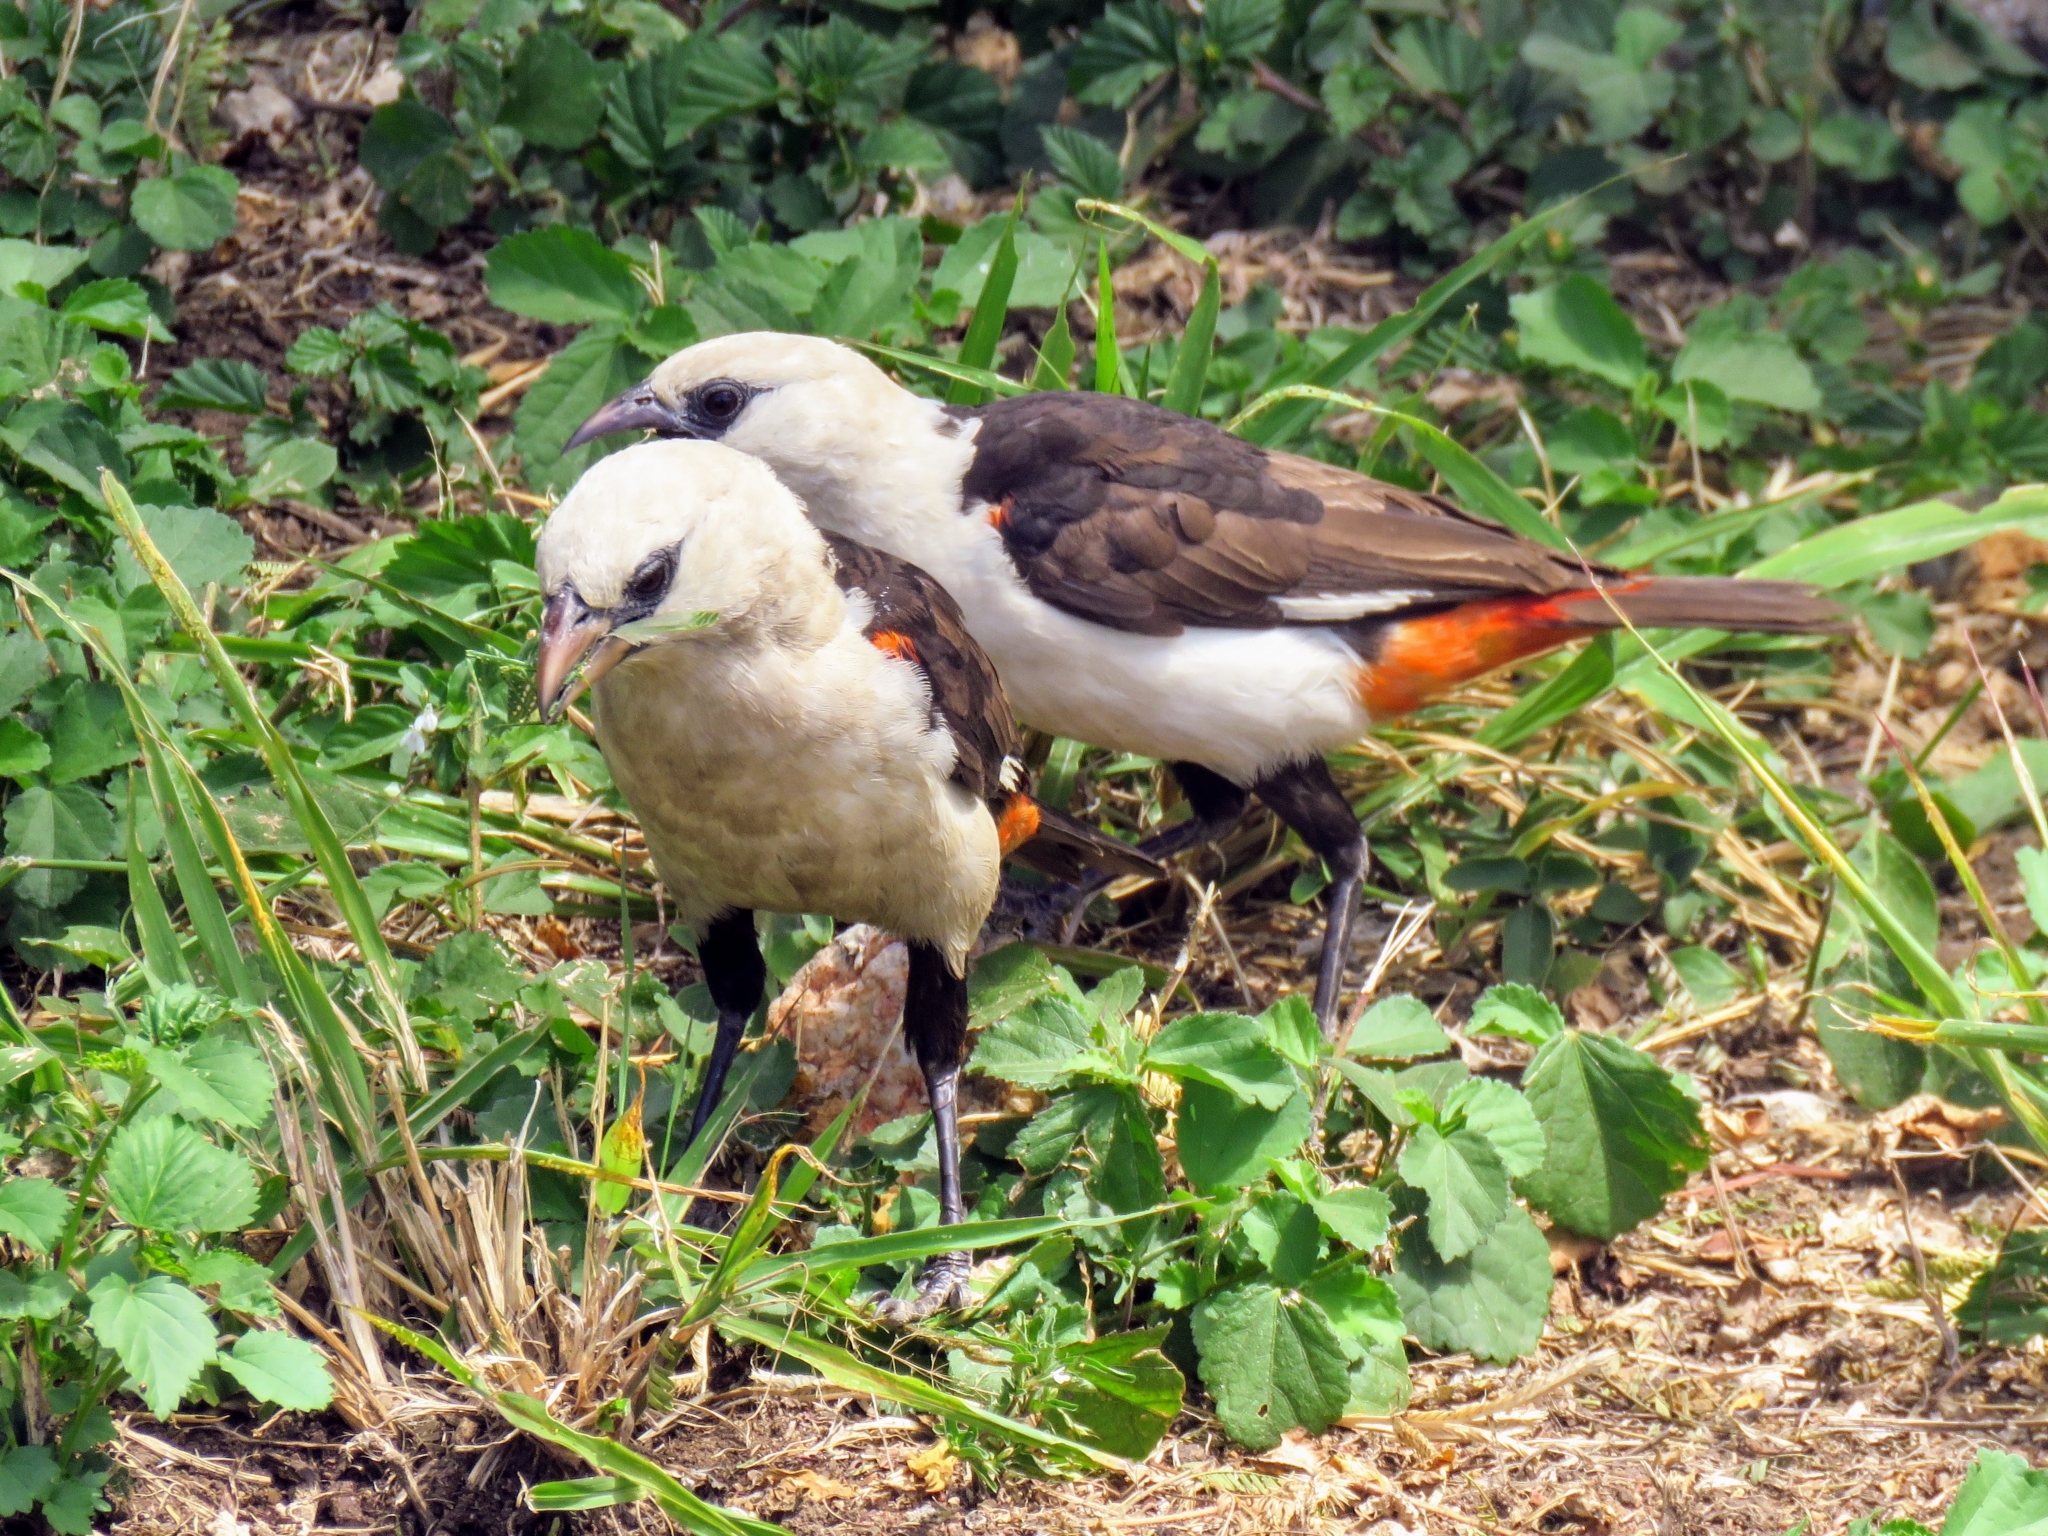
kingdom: Animalia
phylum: Chordata
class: Aves
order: Passeriformes
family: Ploceidae
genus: Dinemellia
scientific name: Dinemellia dinemelli
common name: White-headed buffalo weaver
